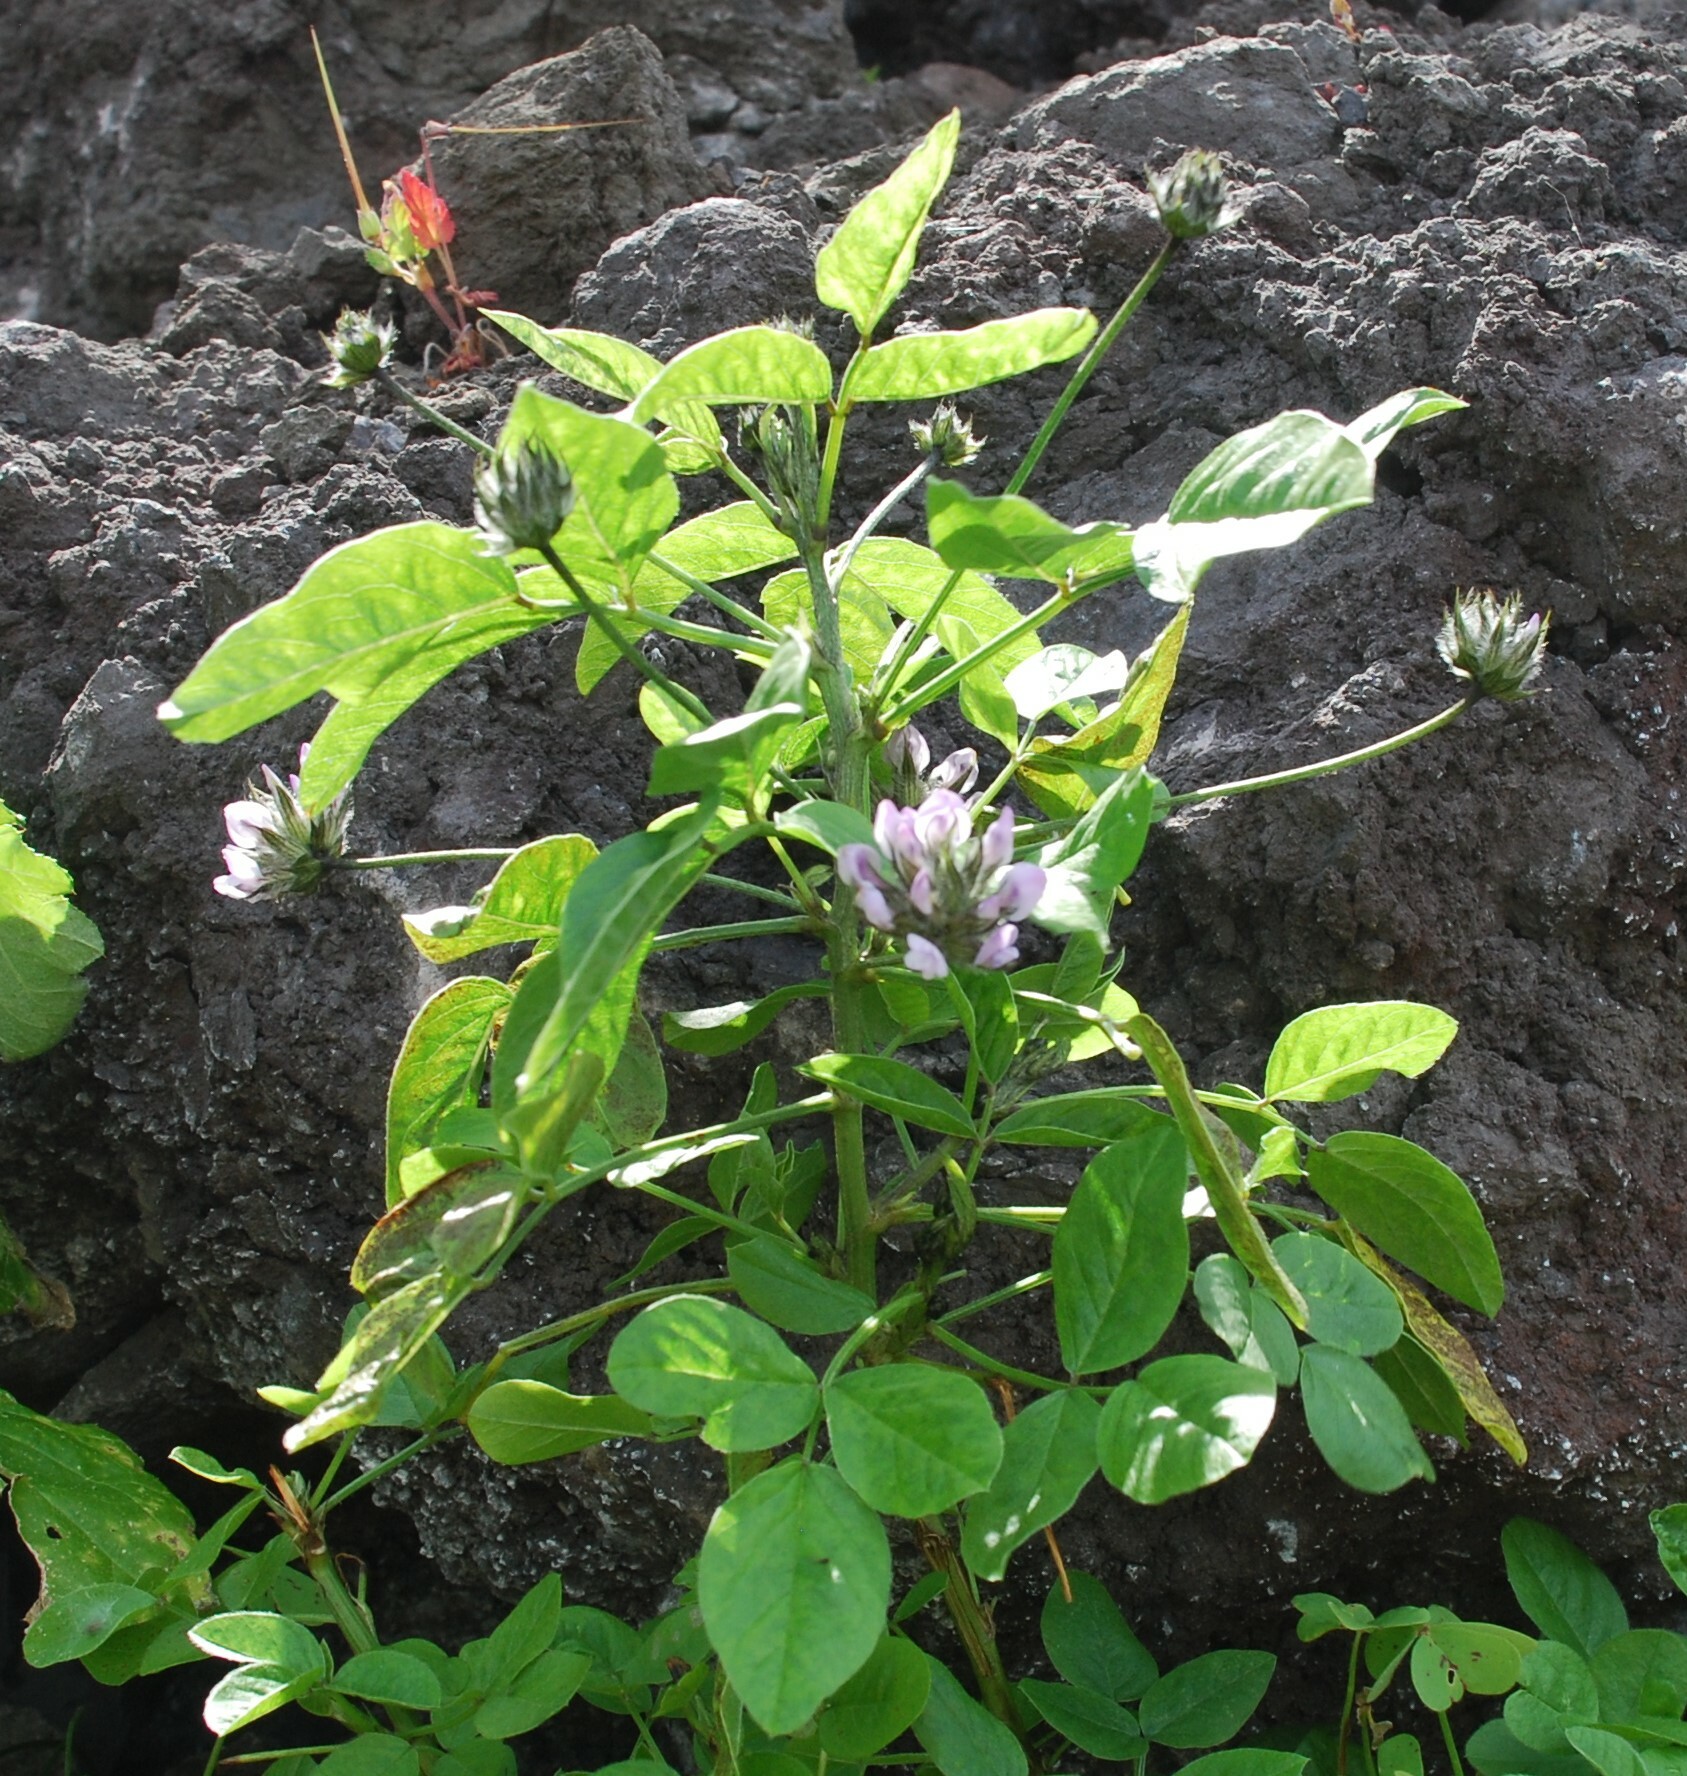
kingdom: Plantae
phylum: Tracheophyta
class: Magnoliopsida
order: Fabales
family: Fabaceae
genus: Bituminaria
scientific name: Bituminaria bituminosa
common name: Arabian pea
